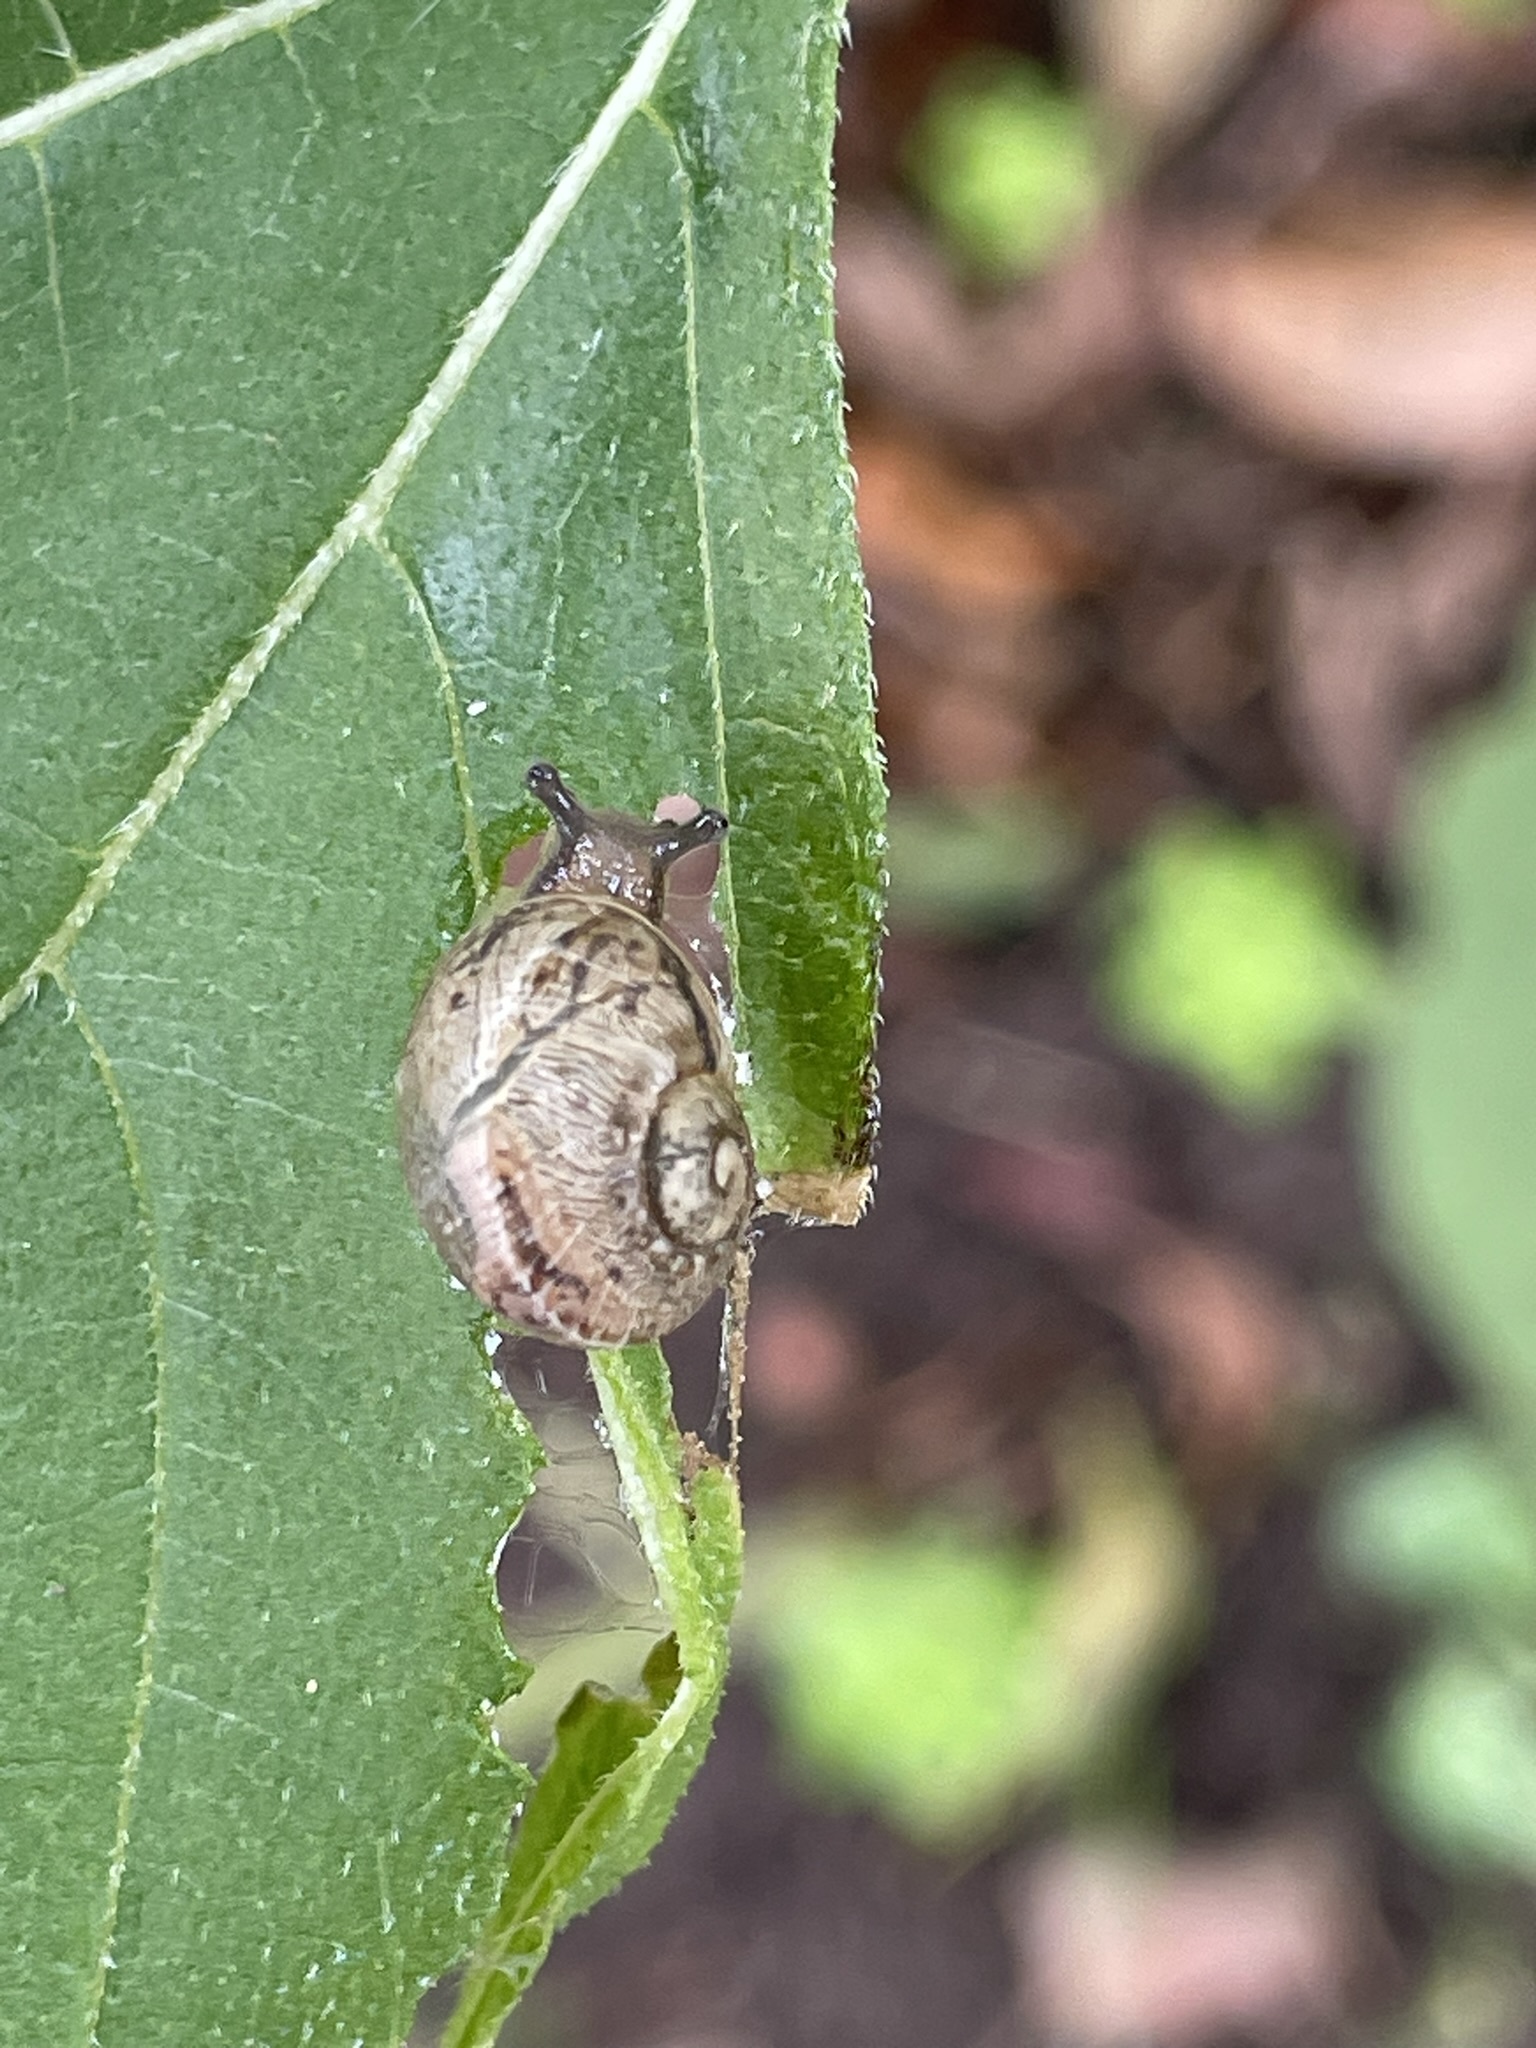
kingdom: Animalia
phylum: Mollusca
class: Gastropoda
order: Stylommatophora
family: Helicidae
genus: Cornu
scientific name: Cornu aspersum
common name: Brown garden snail
